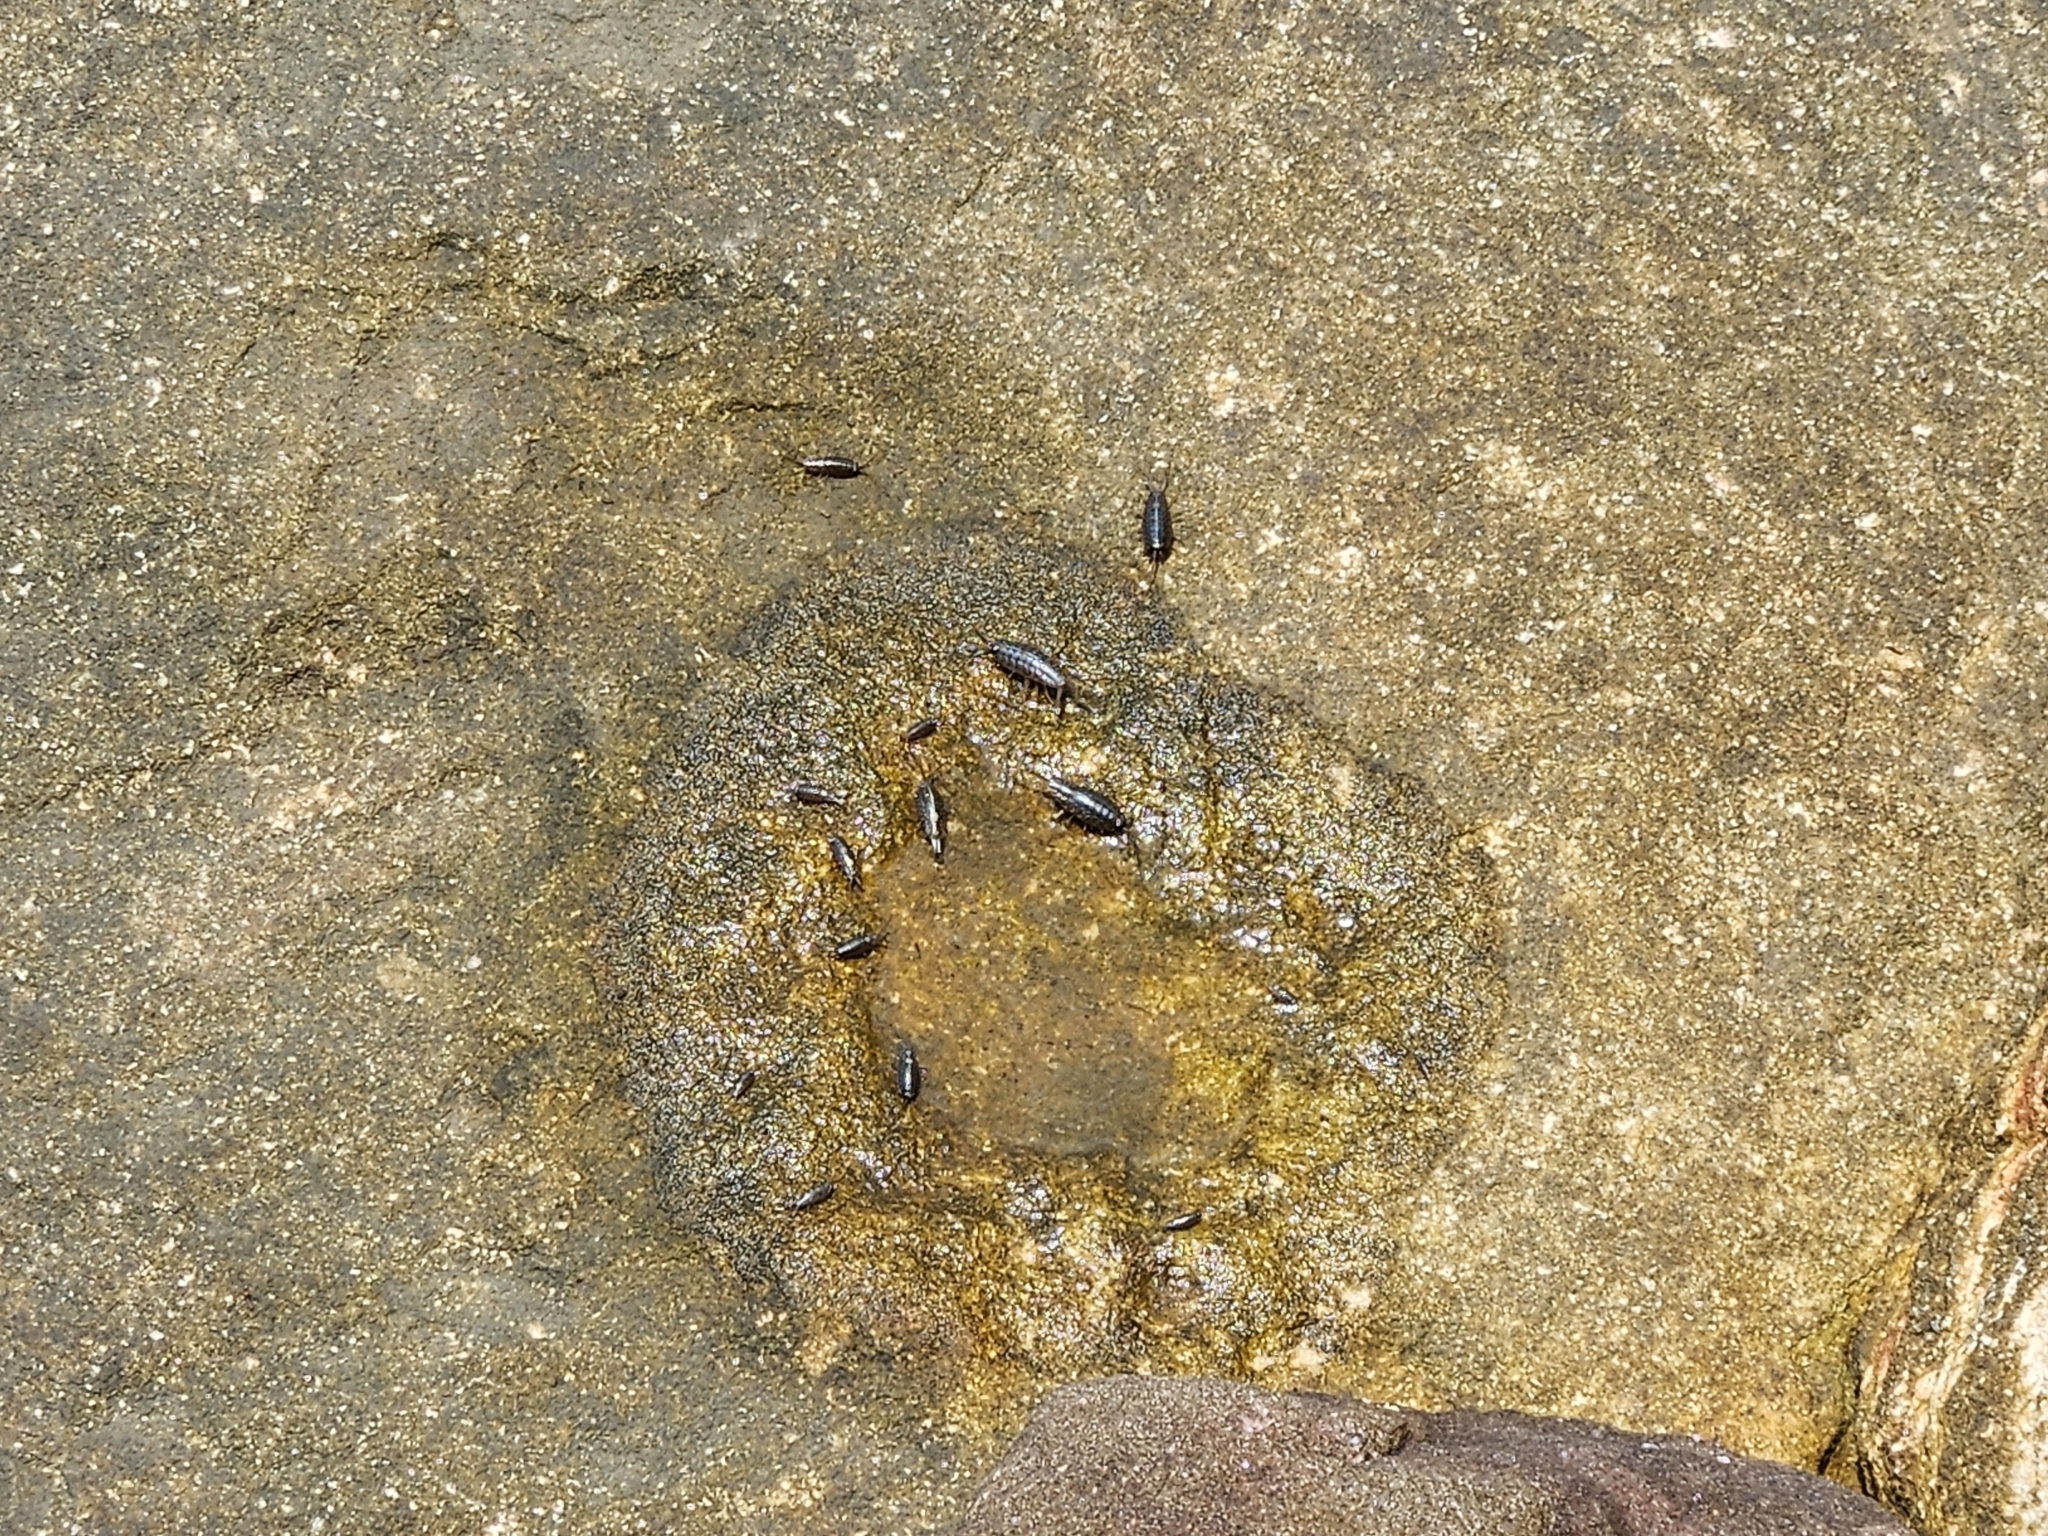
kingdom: Animalia
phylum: Arthropoda
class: Malacostraca
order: Isopoda
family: Ligiidae
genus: Ligia
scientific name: Ligia exotica
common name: Wharf roach
